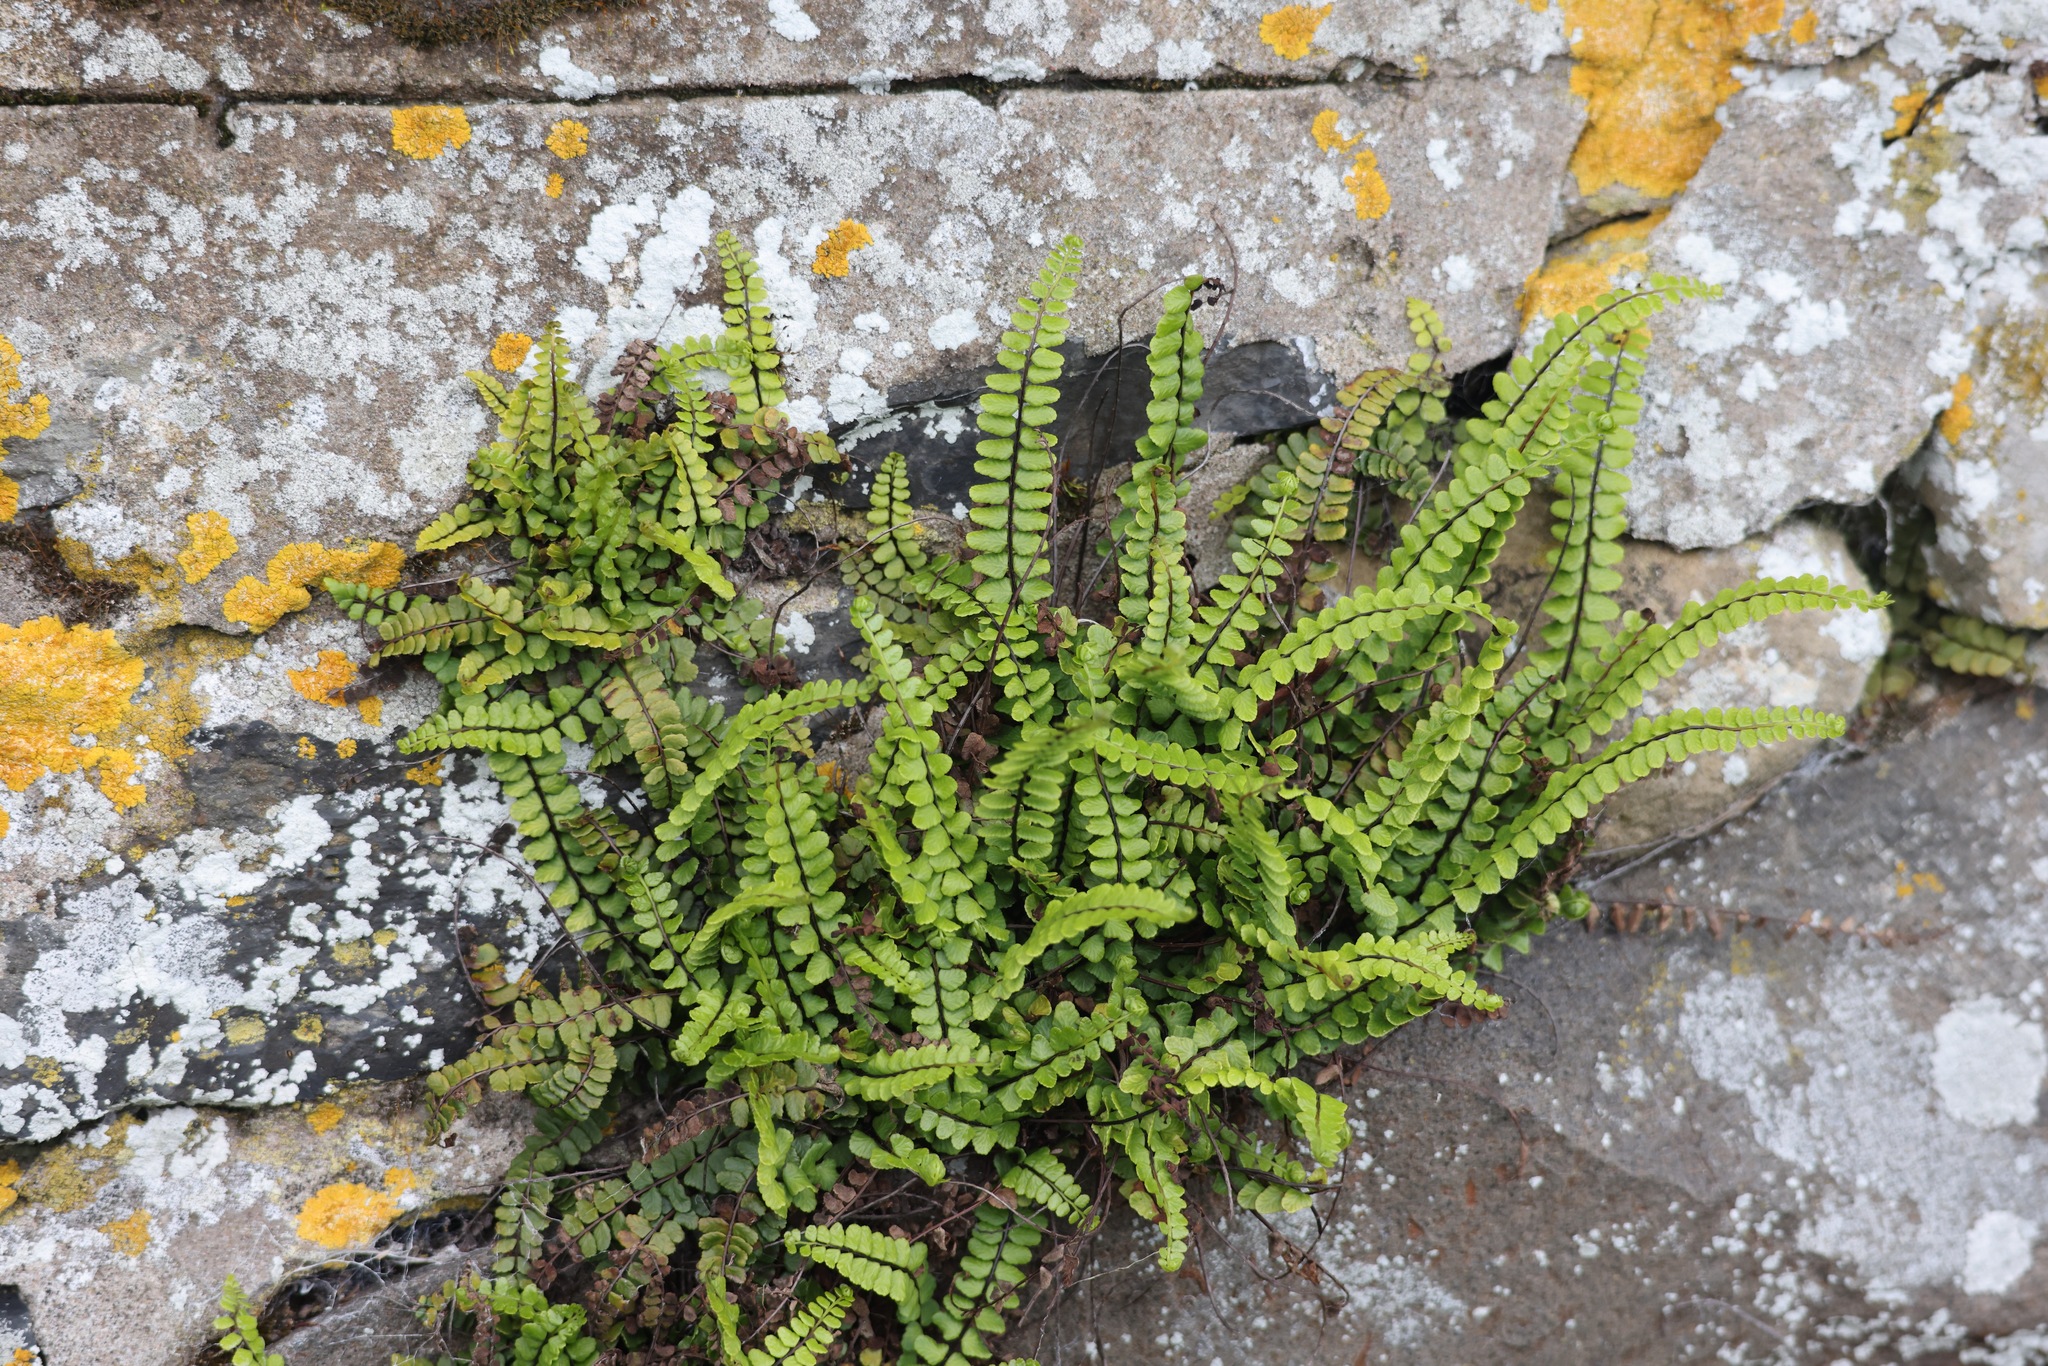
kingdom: Plantae
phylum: Tracheophyta
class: Polypodiopsida
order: Polypodiales
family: Aspleniaceae
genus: Asplenium
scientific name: Asplenium trichomanes
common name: Maidenhair spleenwort
